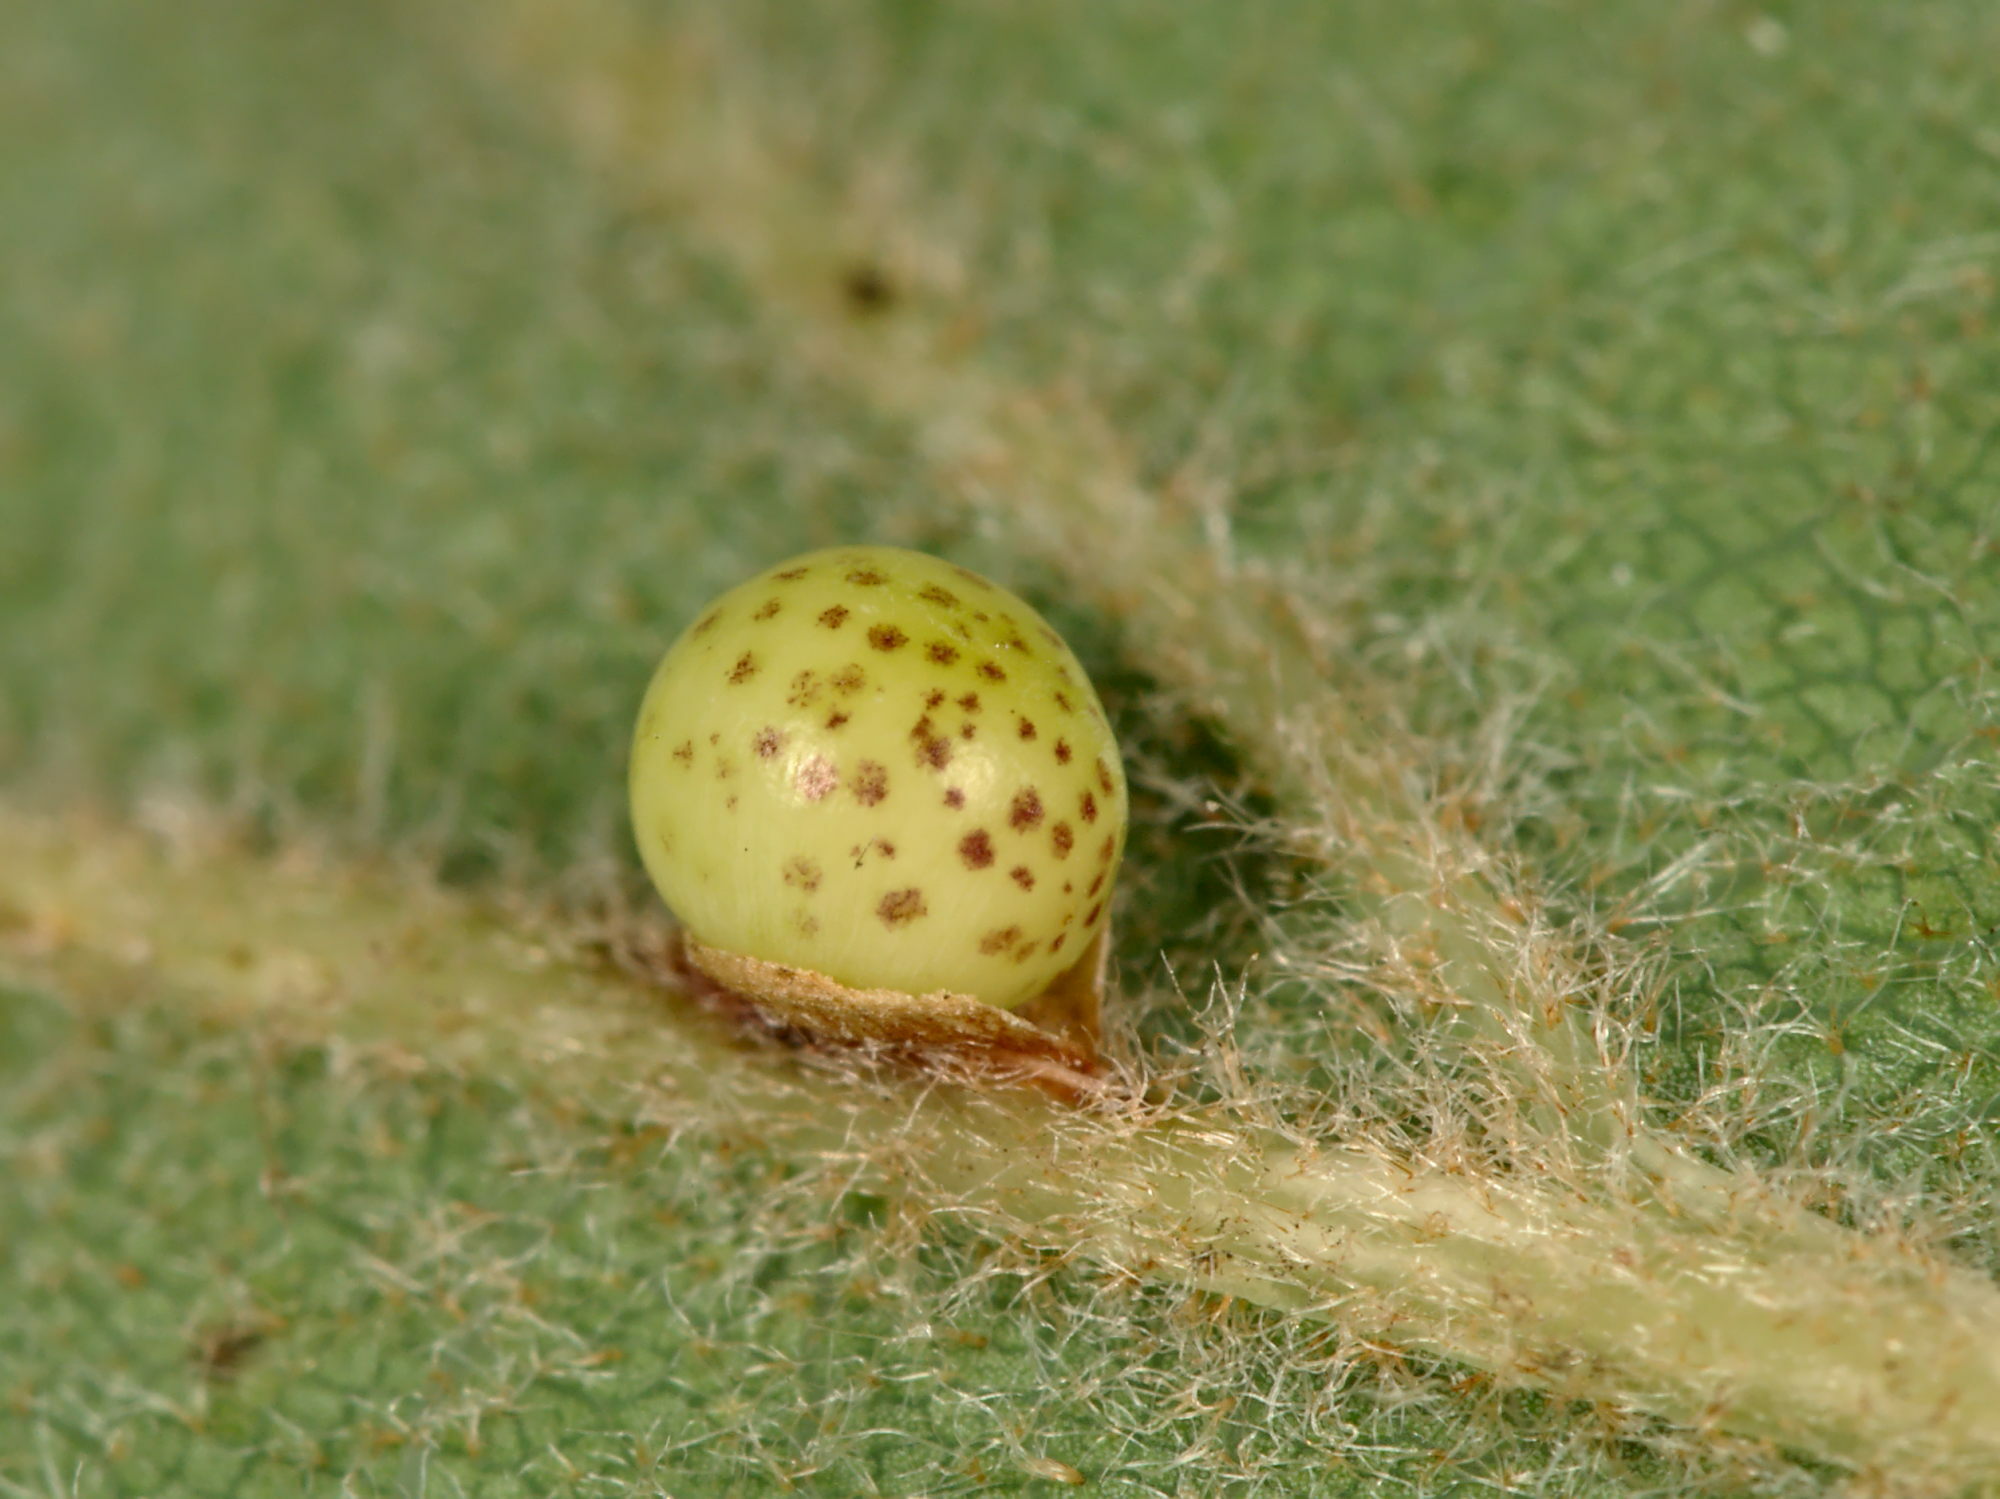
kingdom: Animalia
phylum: Arthropoda
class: Insecta
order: Hymenoptera
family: Cynipidae
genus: Neuroterus
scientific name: Neuroterus anthracinus
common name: Oyster gall
